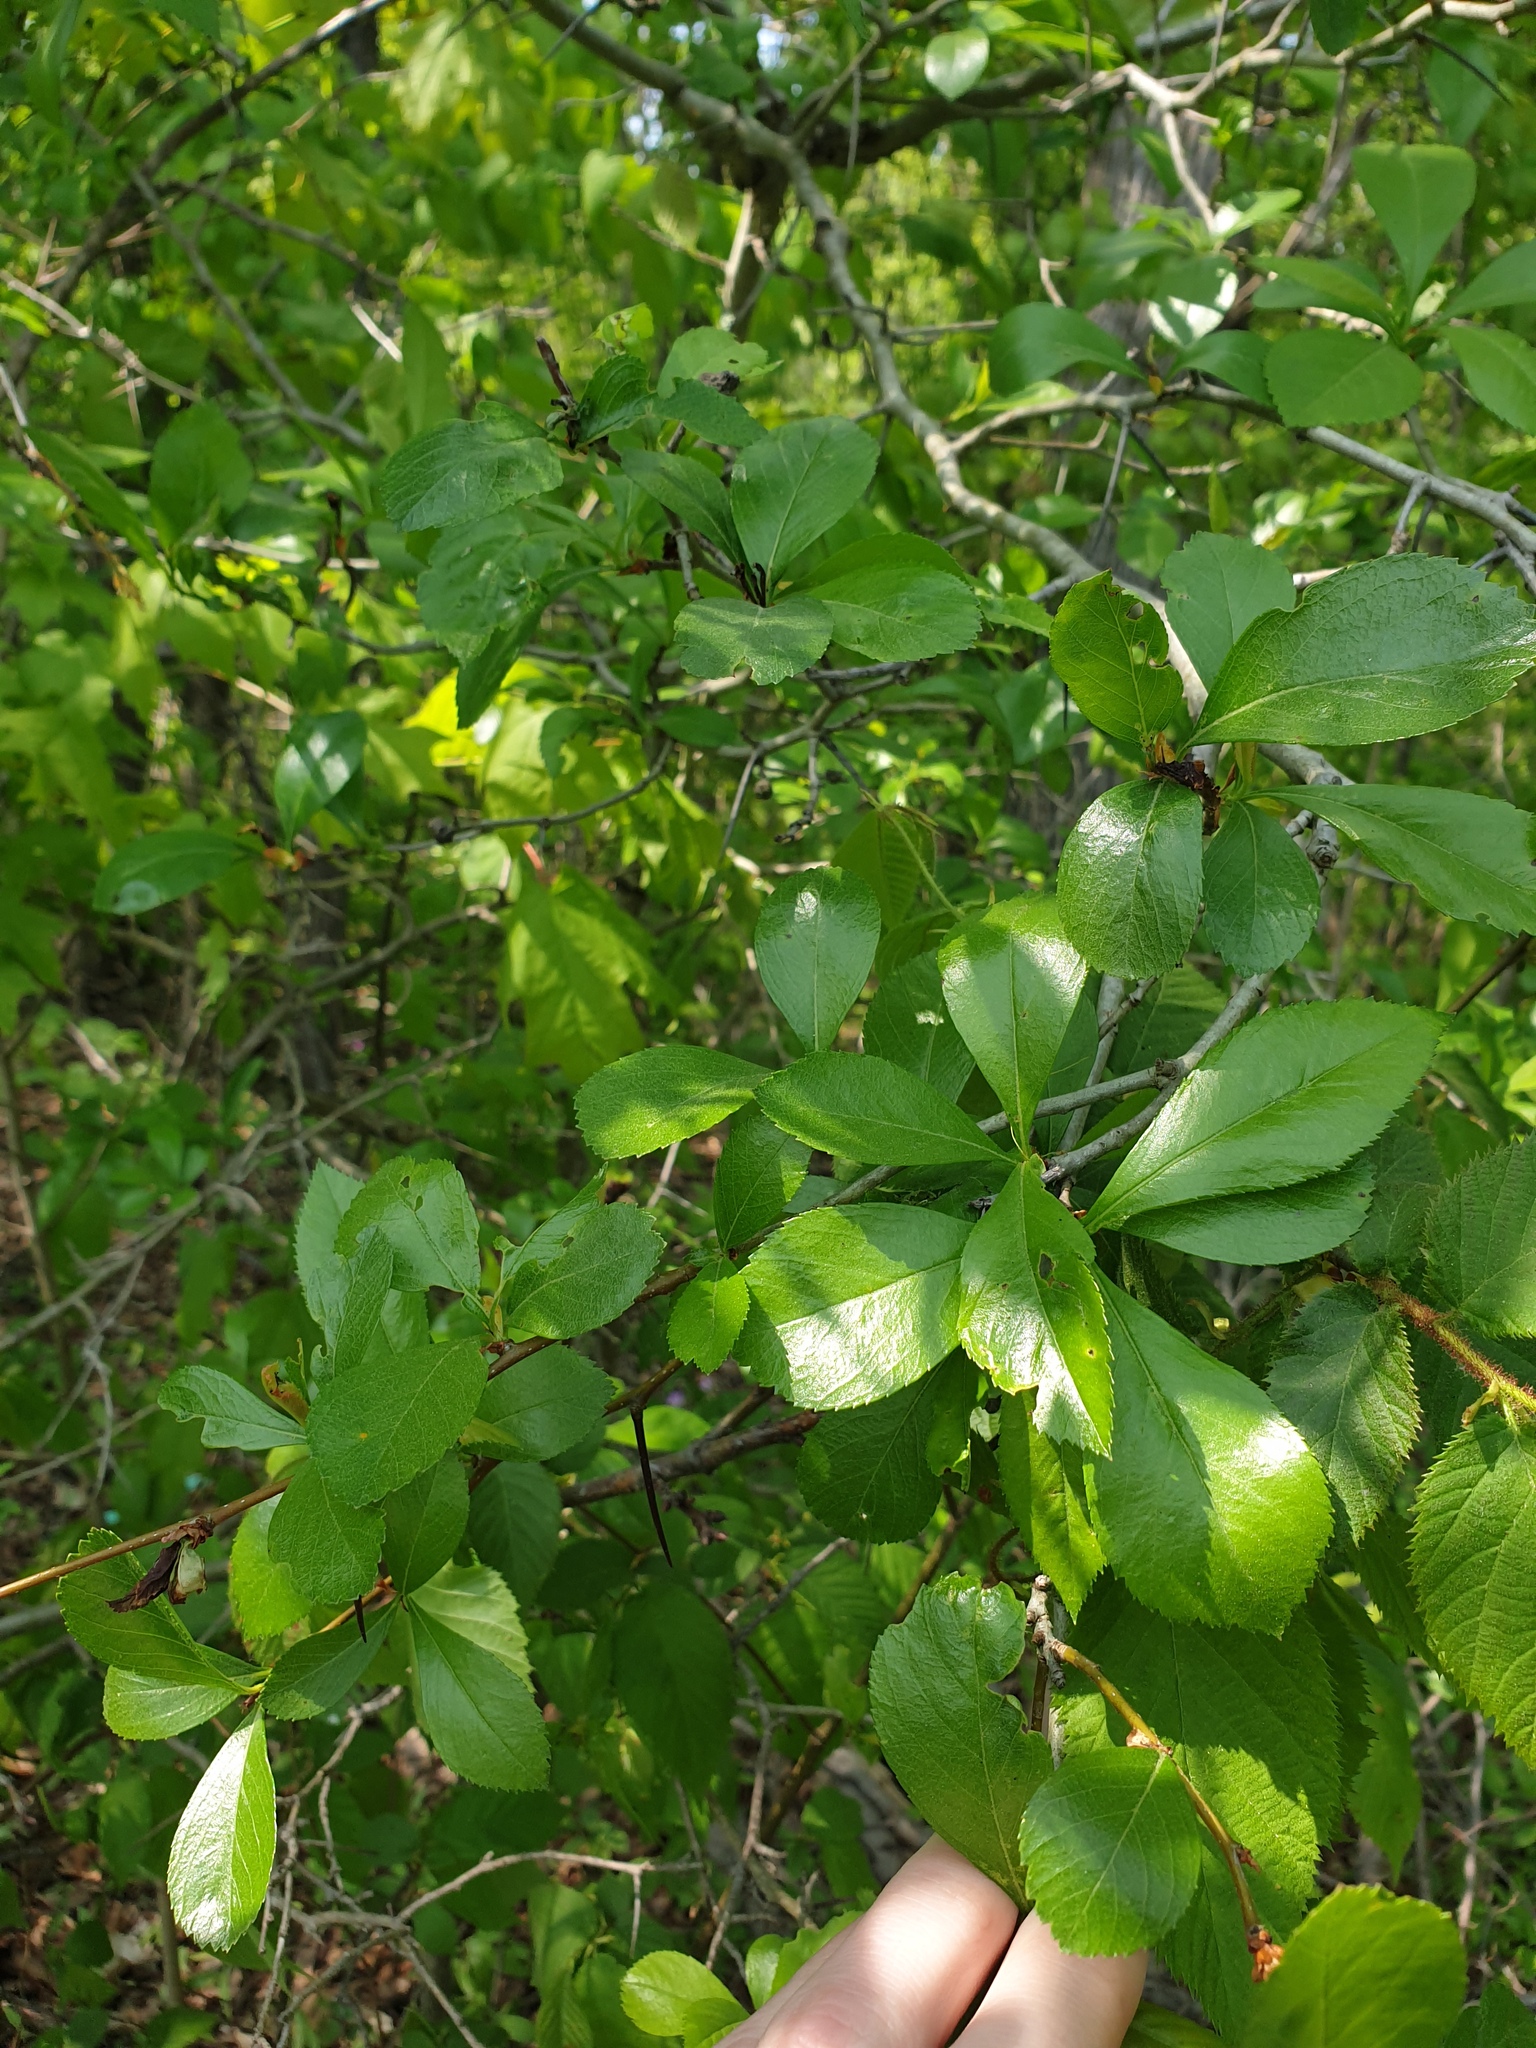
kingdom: Plantae
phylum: Tracheophyta
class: Magnoliopsida
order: Rosales
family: Rosaceae
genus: Crataegus
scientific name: Crataegus crus-galli
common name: Cockspurthorn
